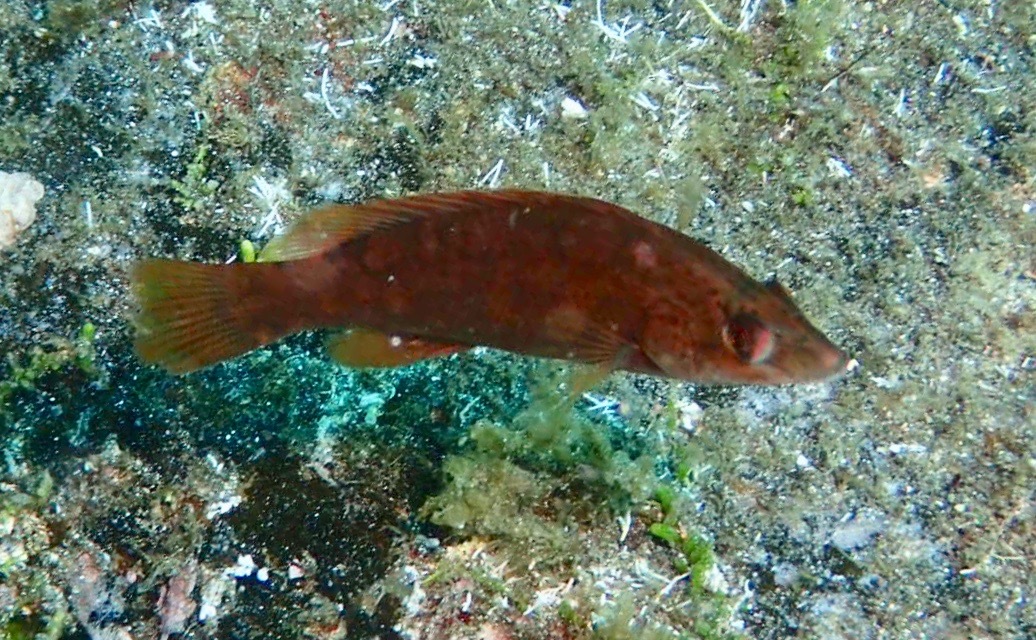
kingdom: Animalia
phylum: Chordata
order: Perciformes
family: Labridae
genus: Labrus
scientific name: Labrus bergylta
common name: Ballan wrasse
